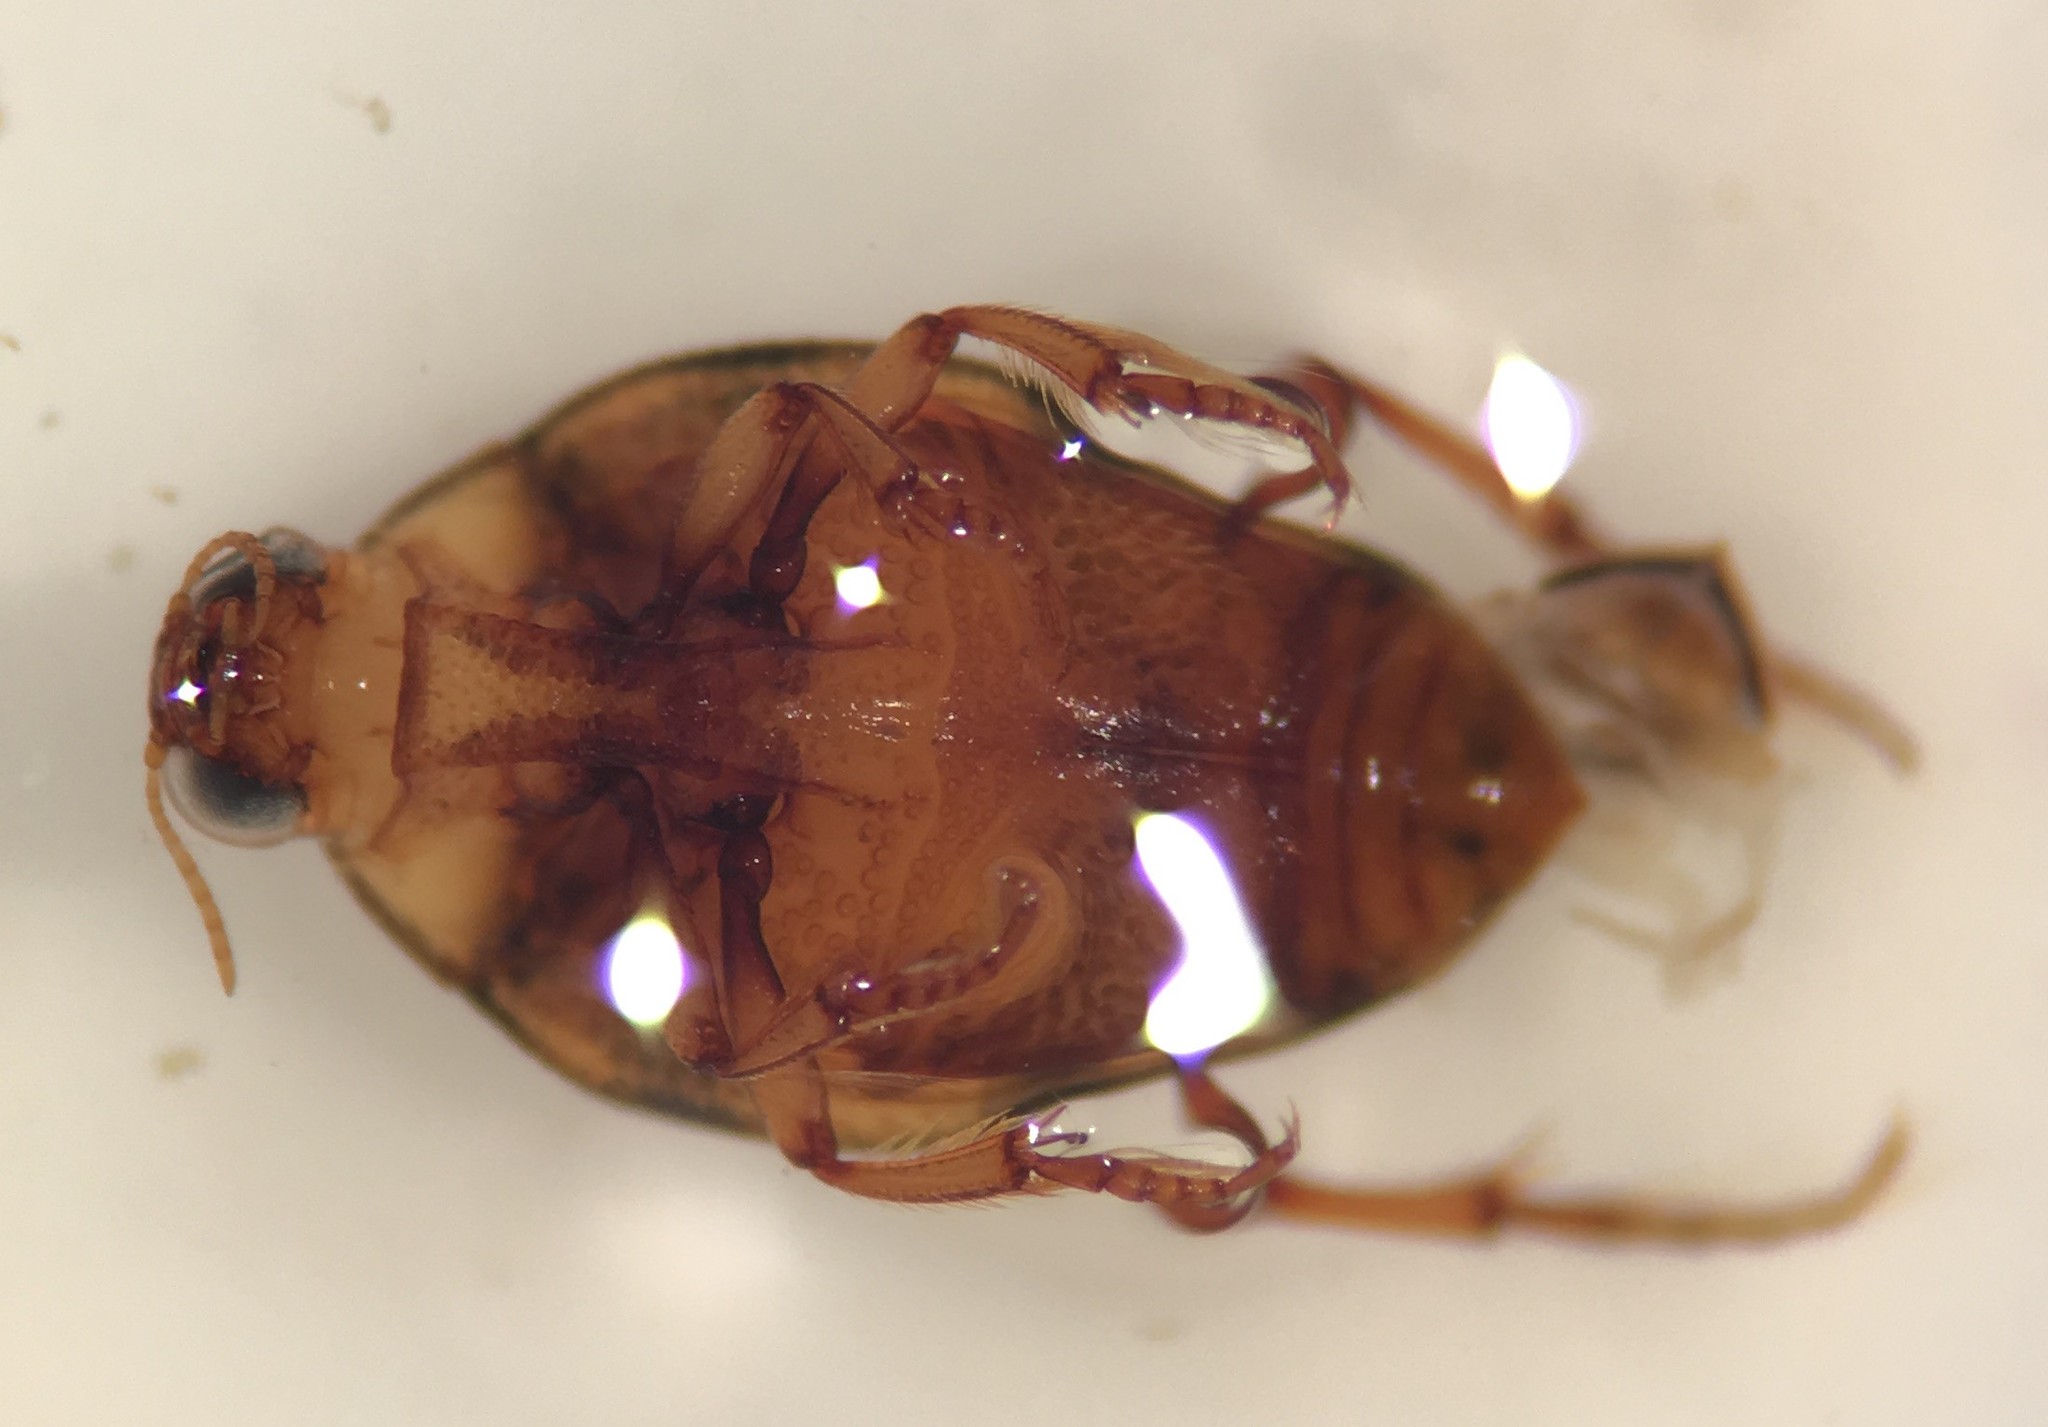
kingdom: Animalia
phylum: Arthropoda
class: Insecta
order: Coleoptera
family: Haliplidae
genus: Haliplus
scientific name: Haliplus triopsis
